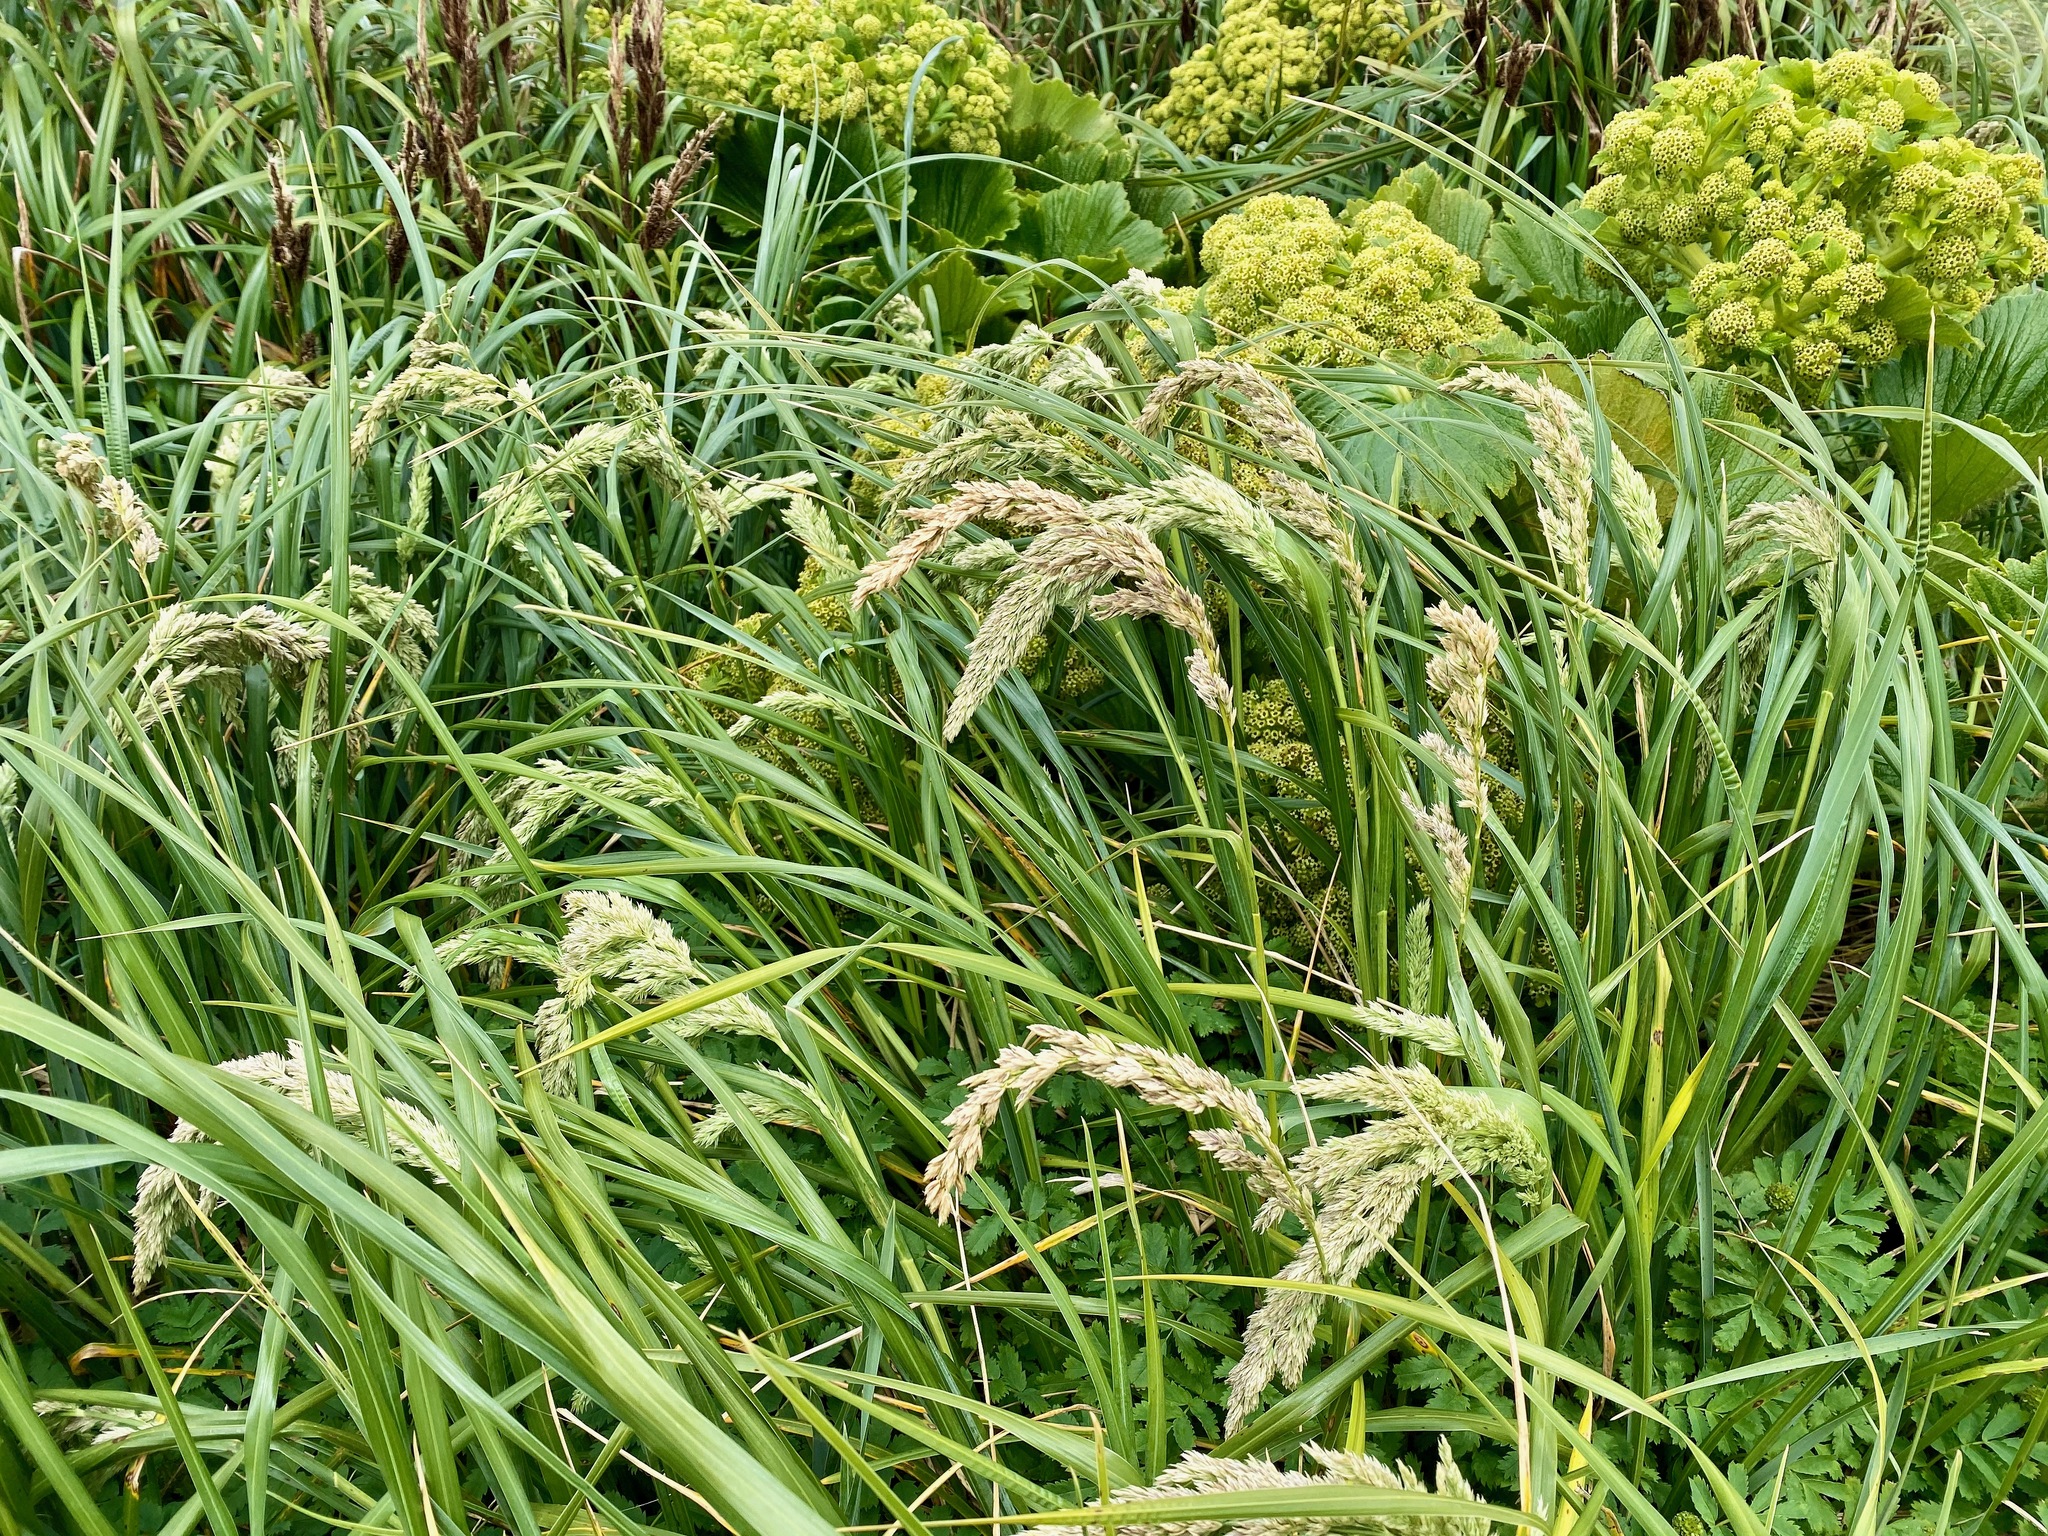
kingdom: Plantae
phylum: Tracheophyta
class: Liliopsida
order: Poales
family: Poaceae
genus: Poa
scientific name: Poa foliosa
